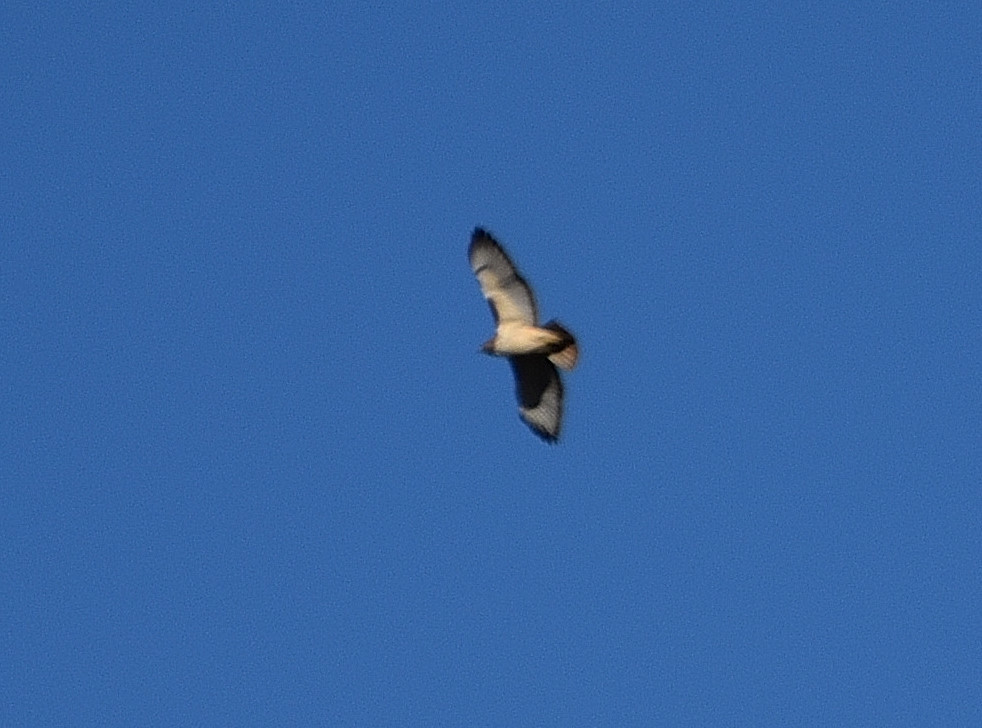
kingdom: Animalia
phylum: Chordata
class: Aves
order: Accipitriformes
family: Accipitridae
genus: Buteo
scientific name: Buteo jamaicensis
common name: Red-tailed hawk
